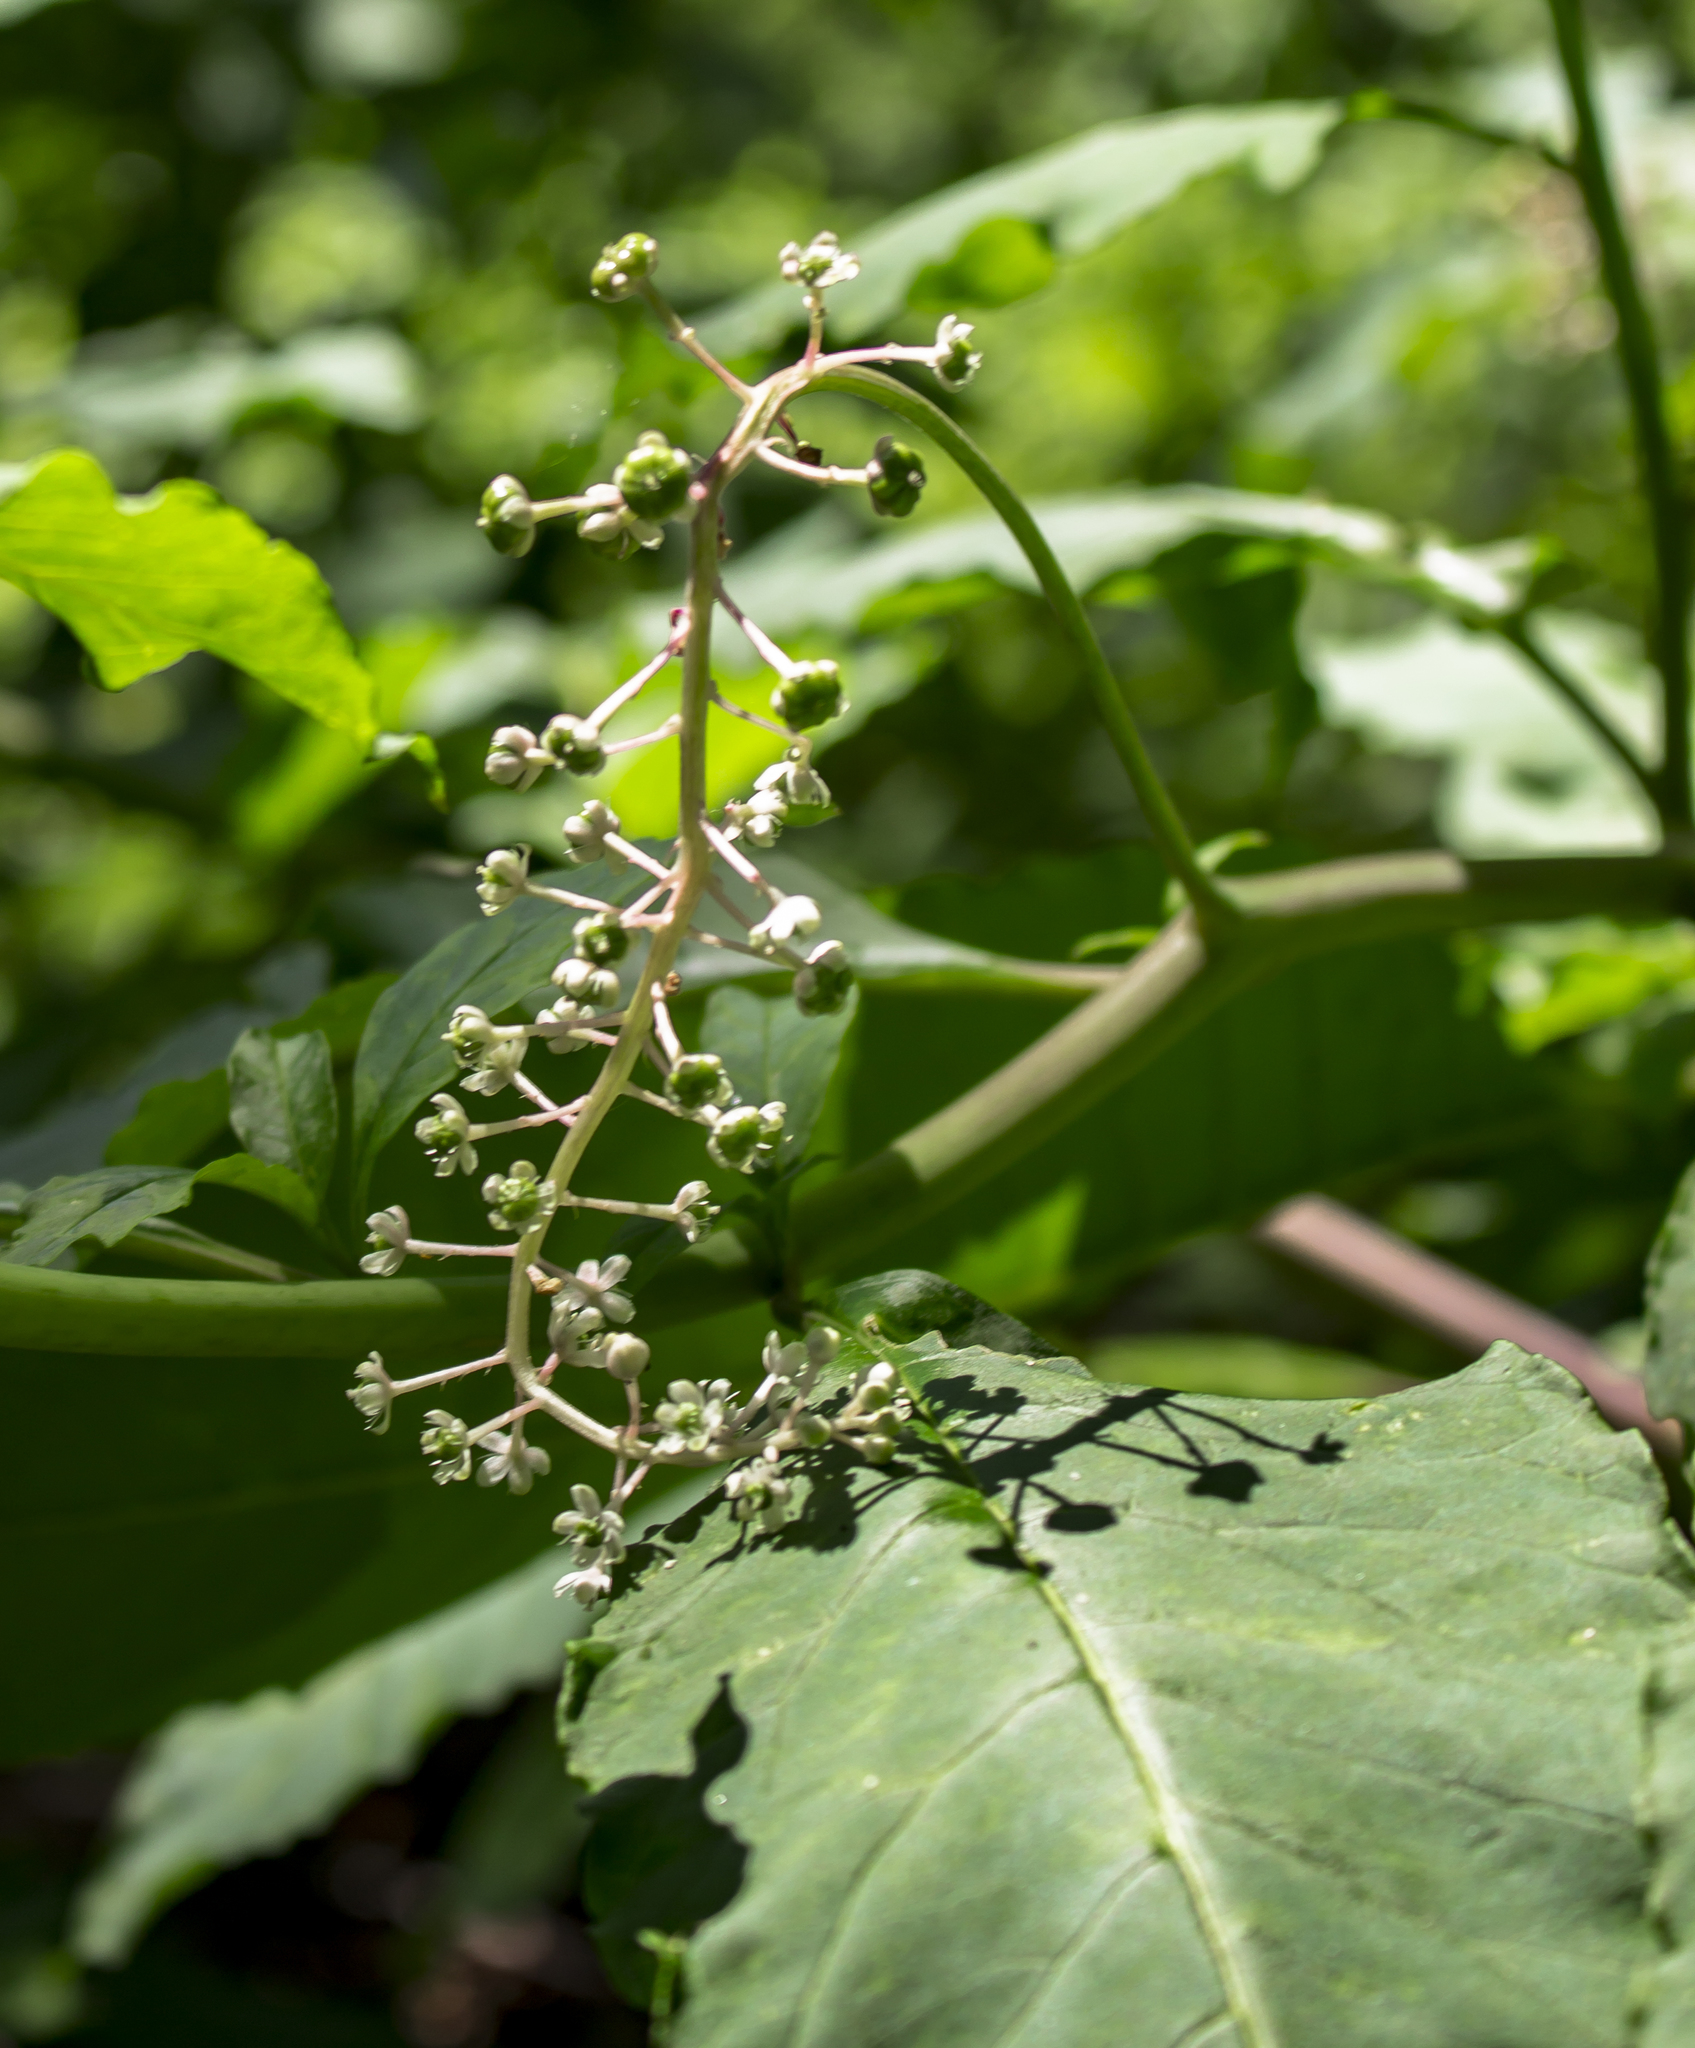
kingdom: Plantae
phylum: Tracheophyta
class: Magnoliopsida
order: Caryophyllales
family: Phytolaccaceae
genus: Phytolacca
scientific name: Phytolacca americana
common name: American pokeweed
